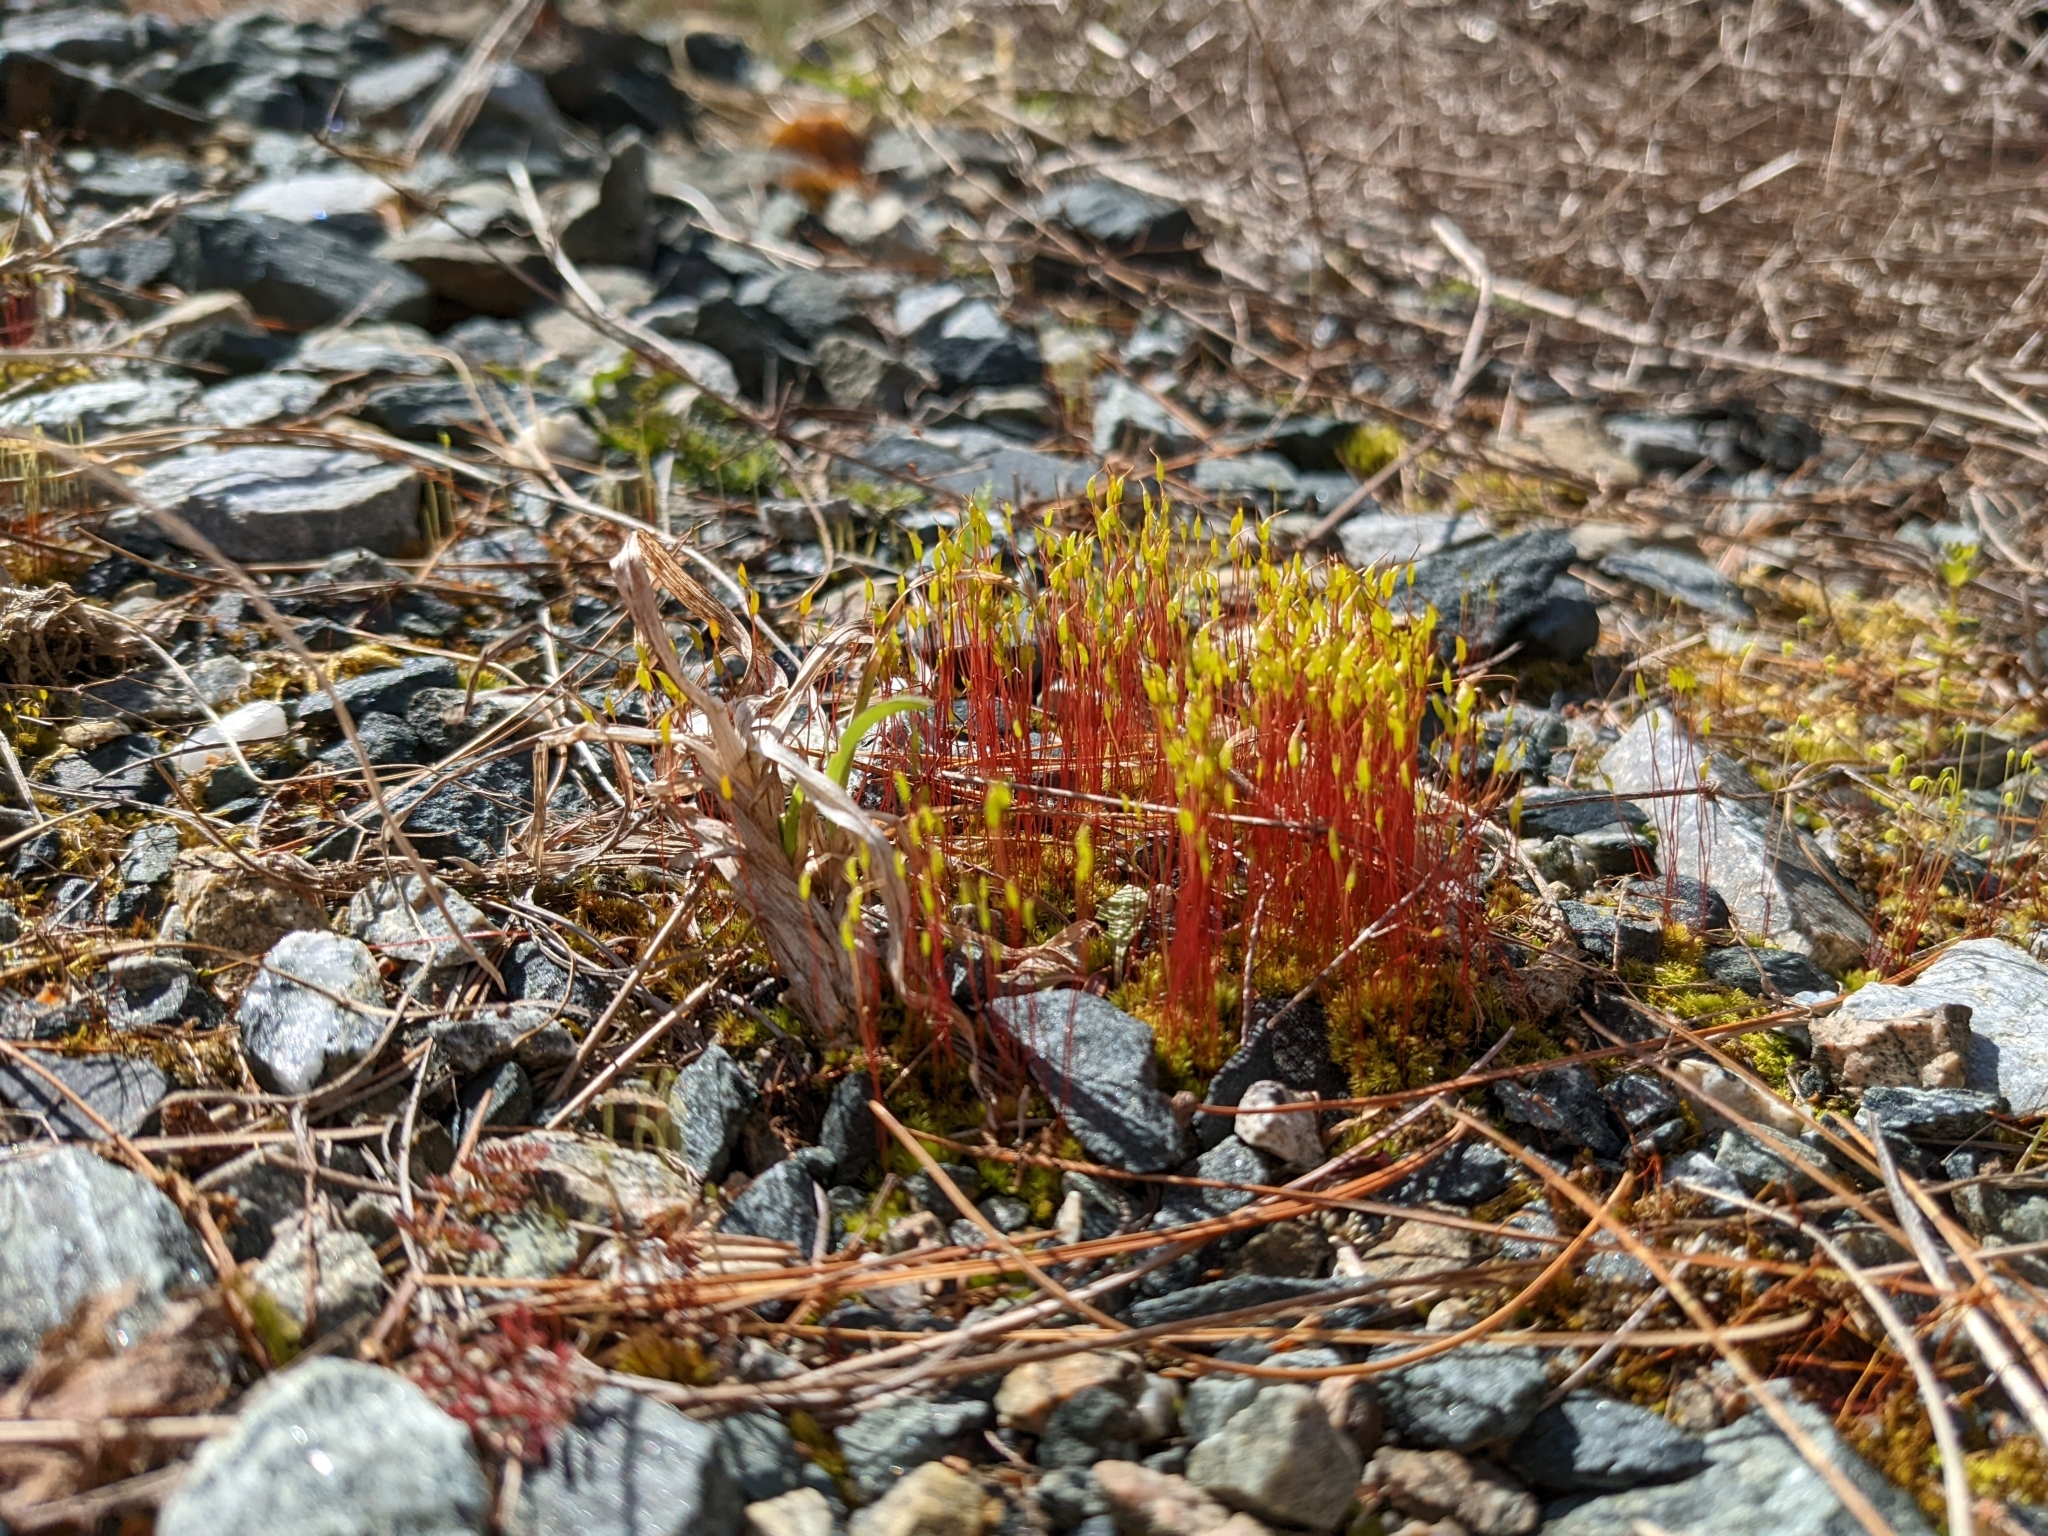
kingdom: Plantae
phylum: Bryophyta
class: Bryopsida
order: Dicranales
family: Ditrichaceae
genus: Ceratodon
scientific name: Ceratodon purpureus
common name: Redshank
